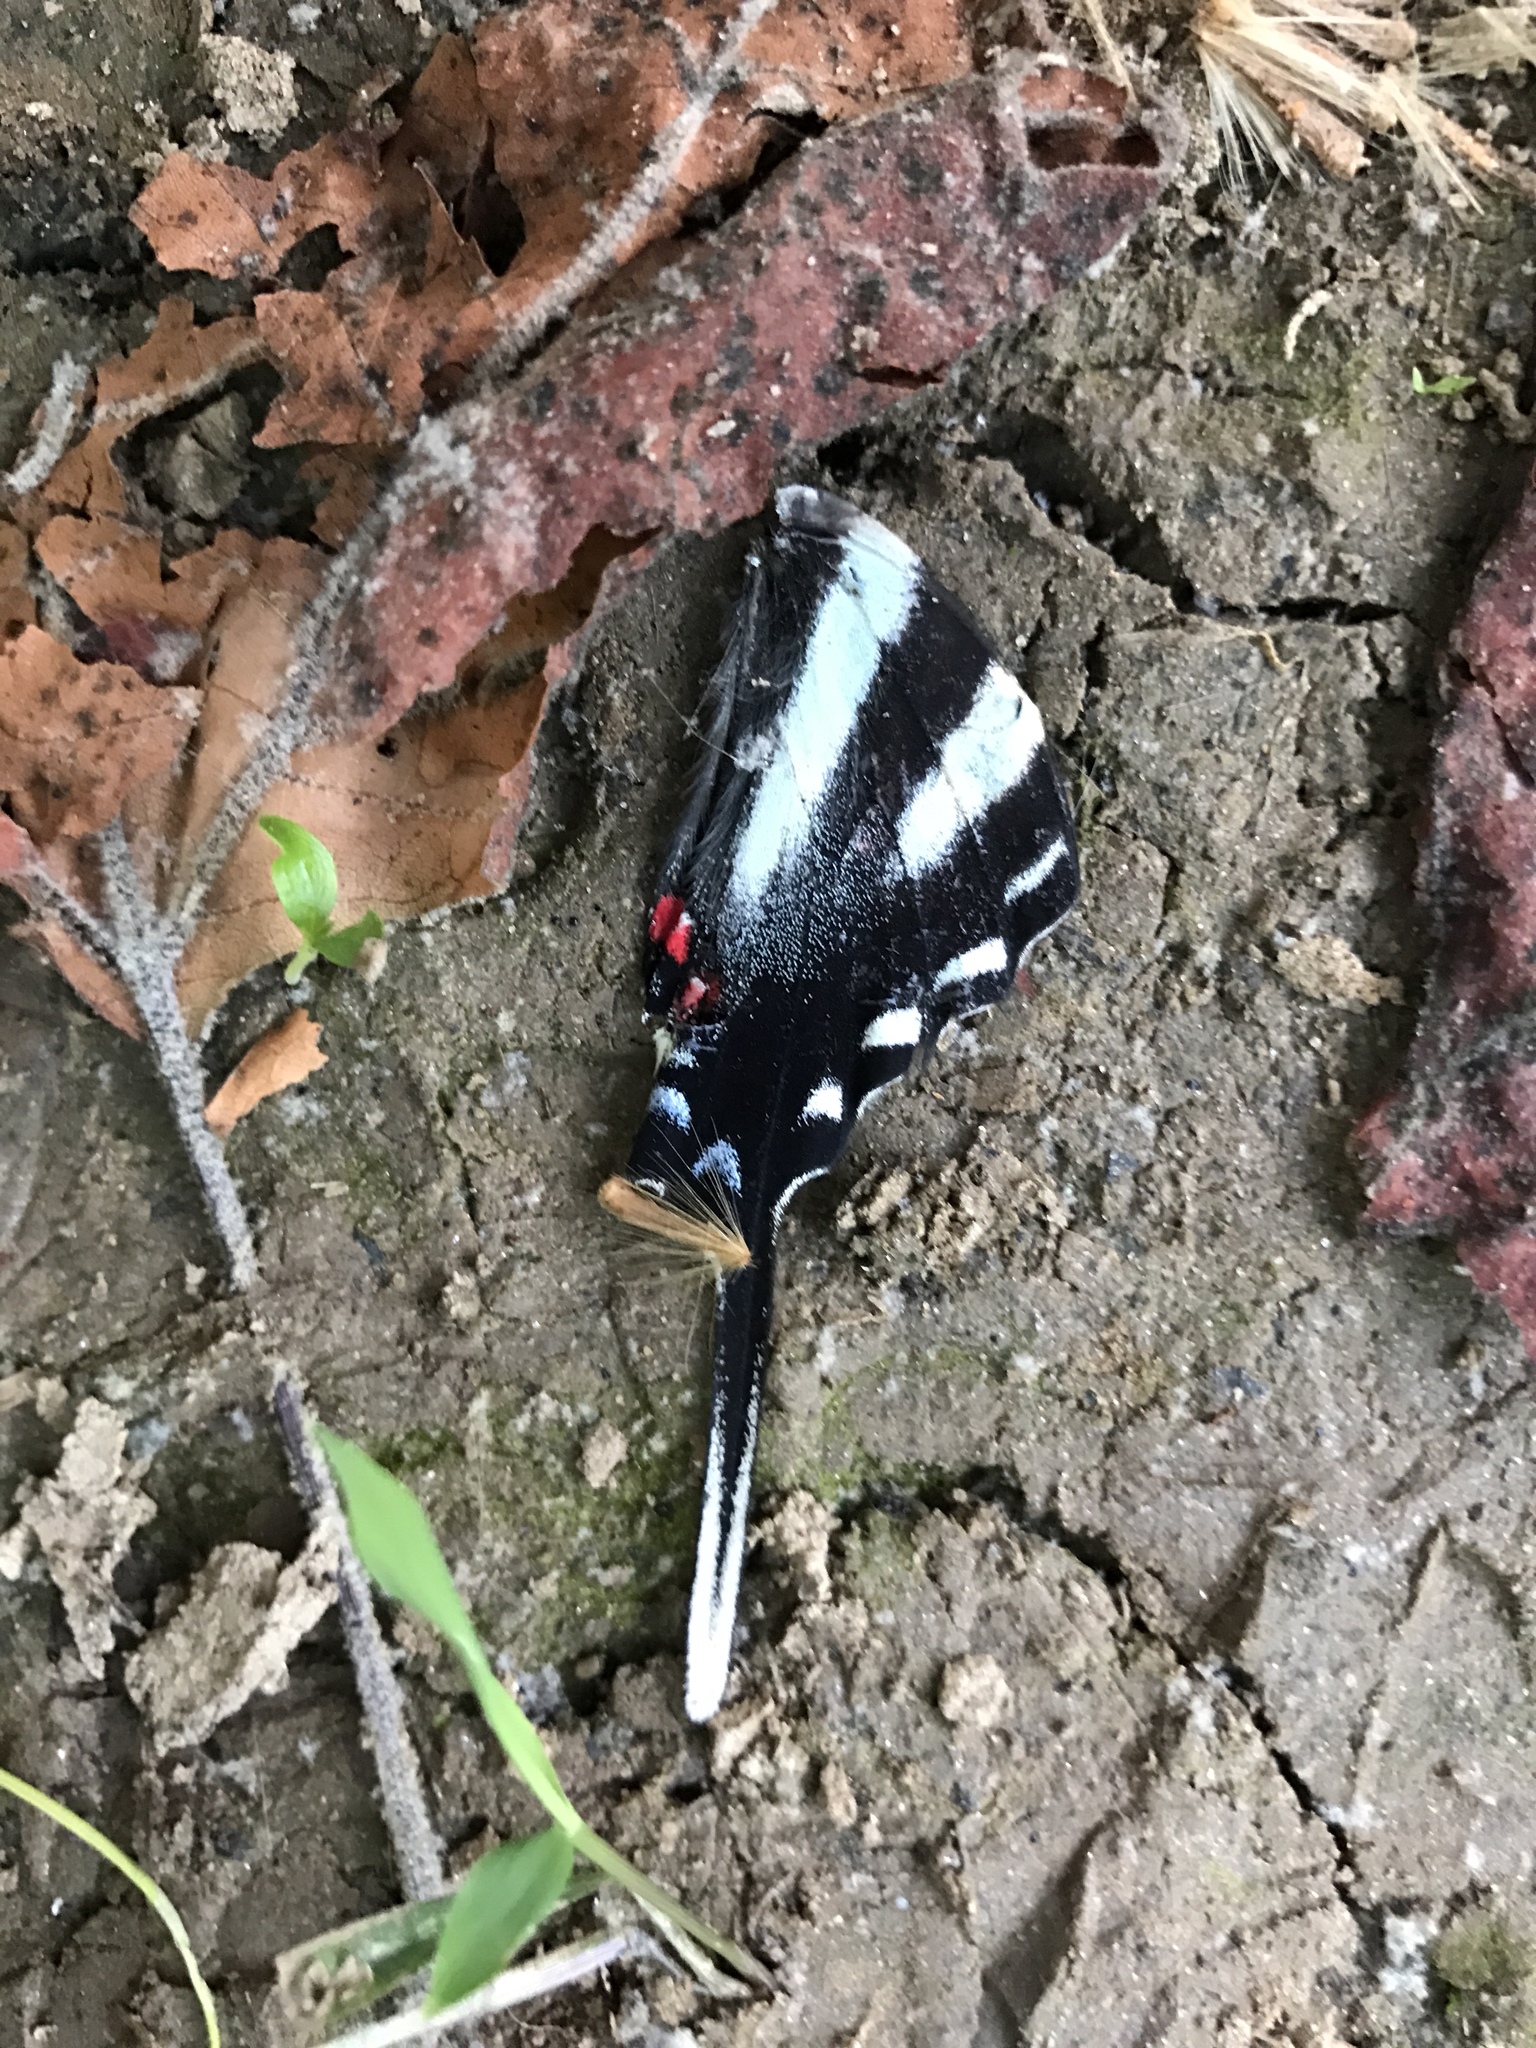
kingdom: Animalia
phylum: Arthropoda
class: Insecta
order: Lepidoptera
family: Papilionidae
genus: Protographium
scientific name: Protographium marcellus
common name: Zebra swallowtail
